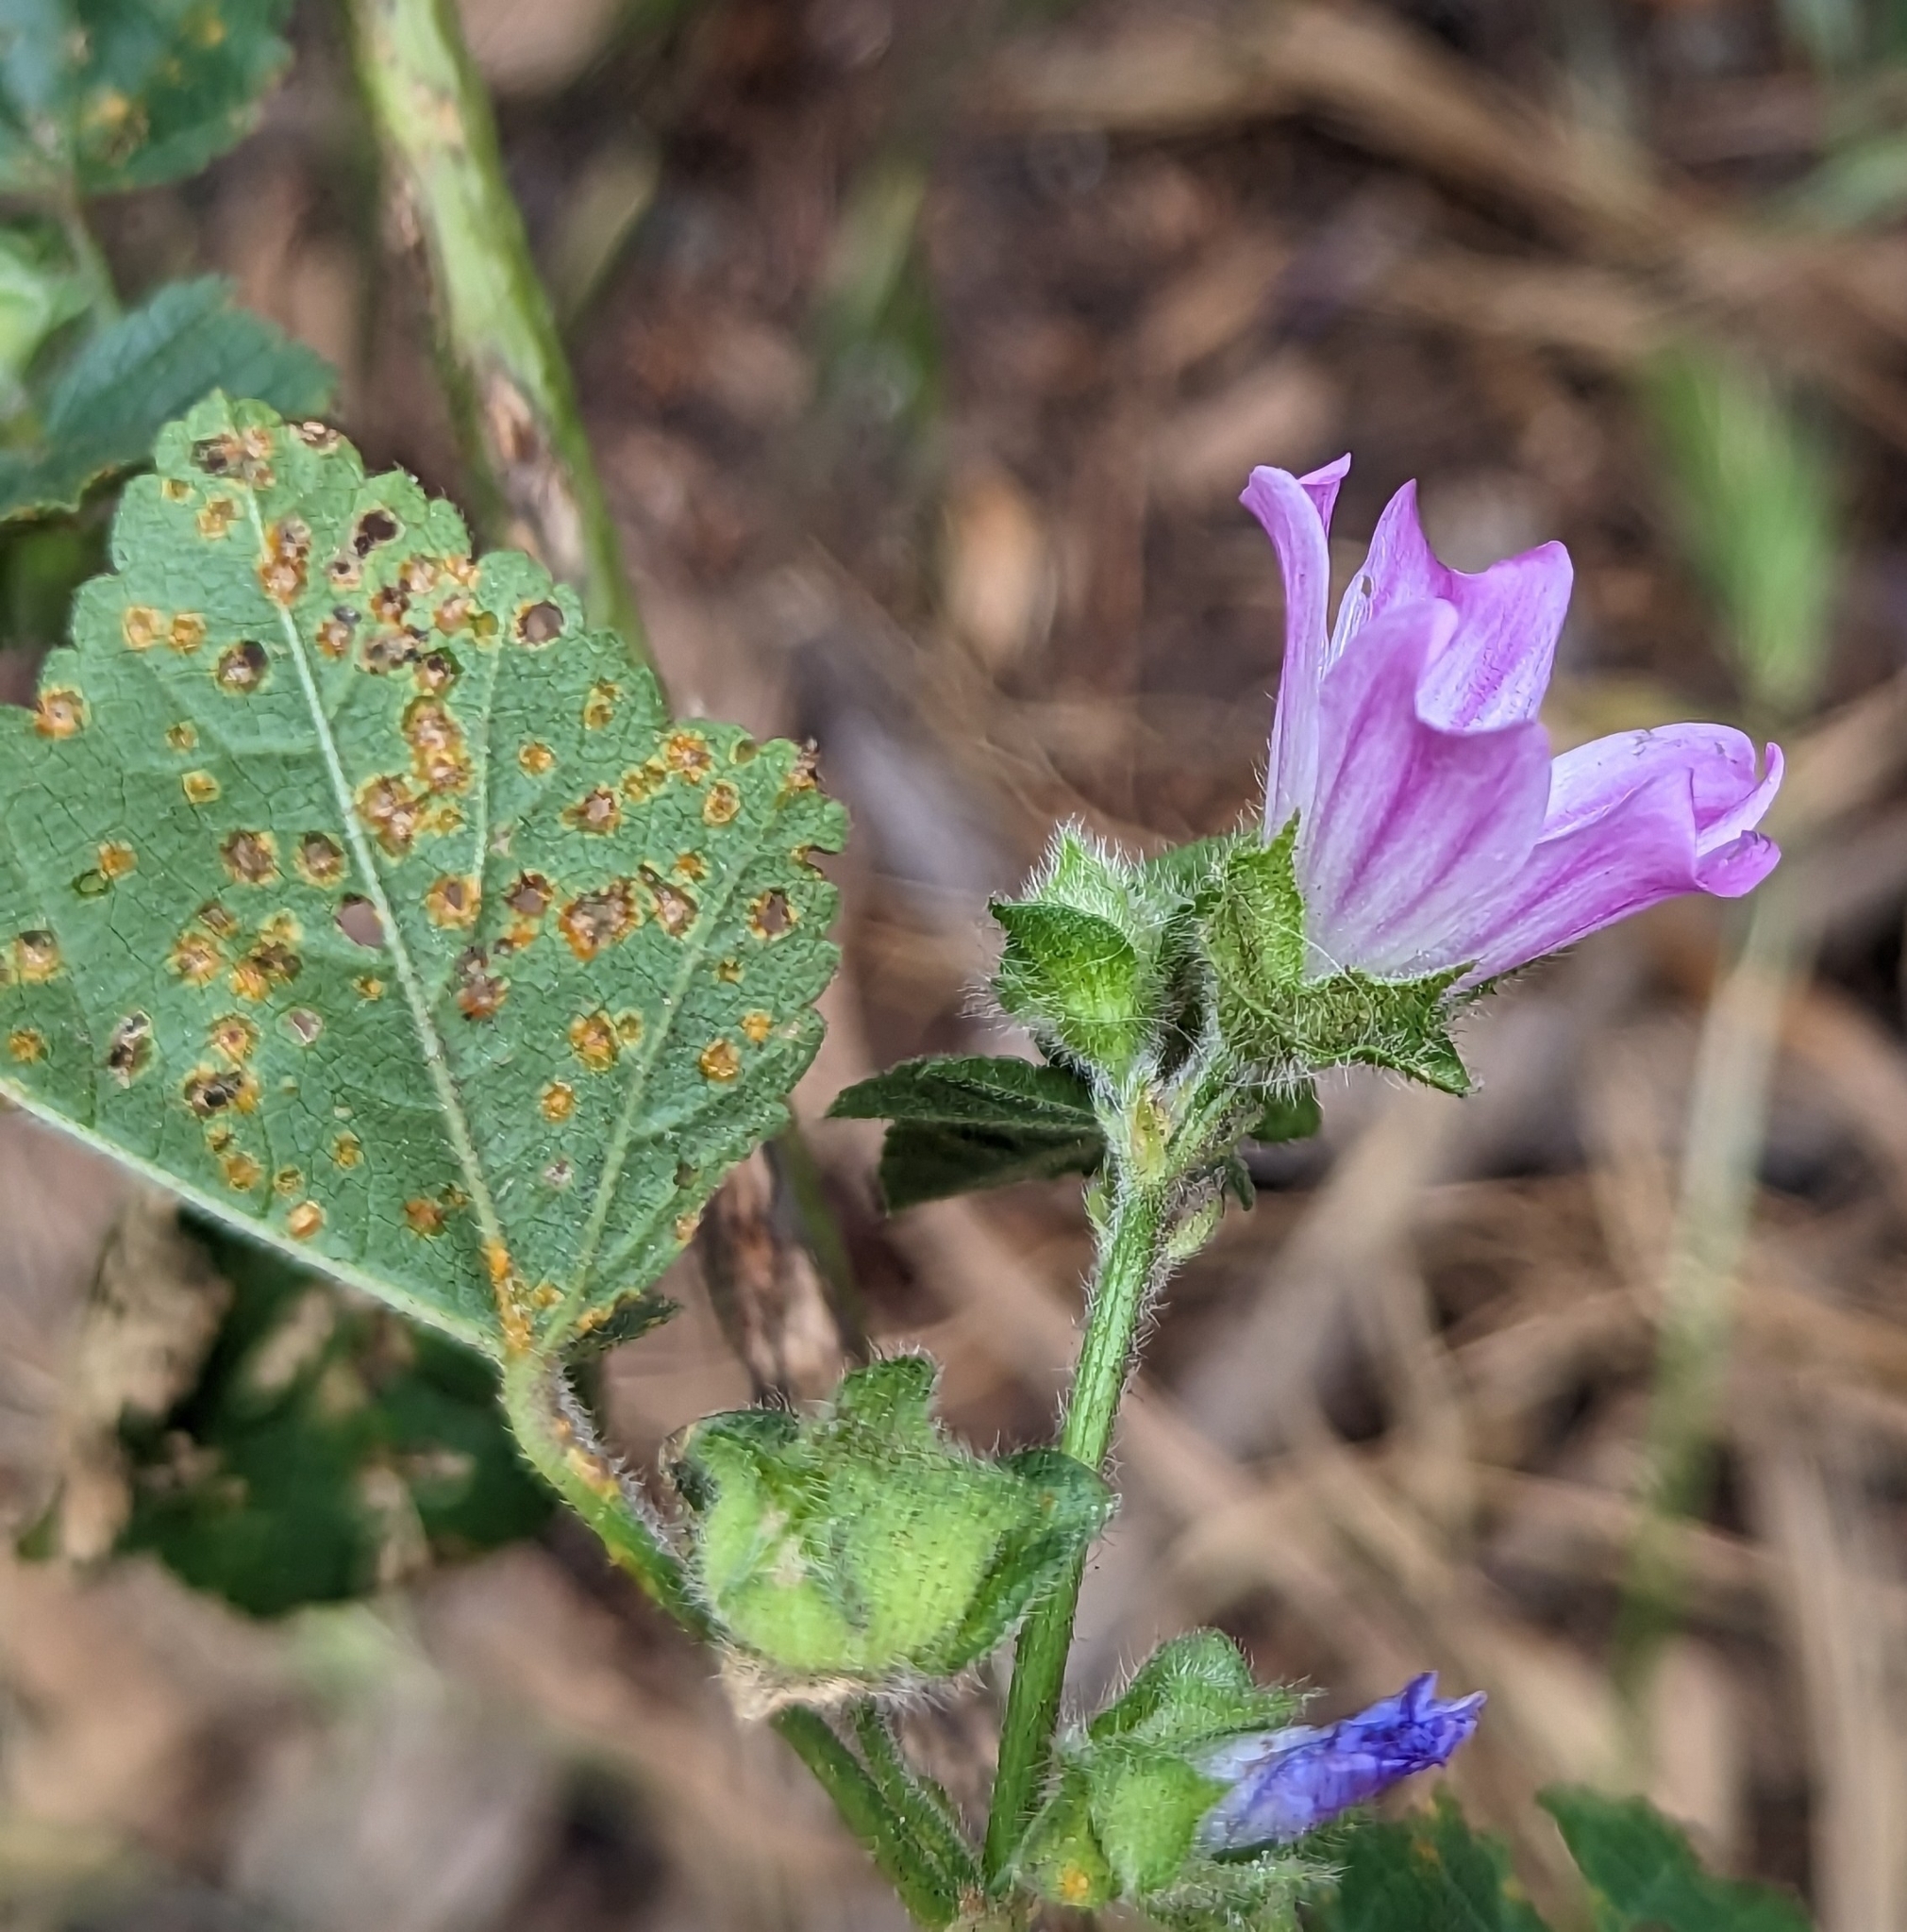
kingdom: Plantae
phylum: Tracheophyta
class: Magnoliopsida
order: Malvales
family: Malvaceae
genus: Malva
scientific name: Malva multiflora
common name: Cheeseweed
